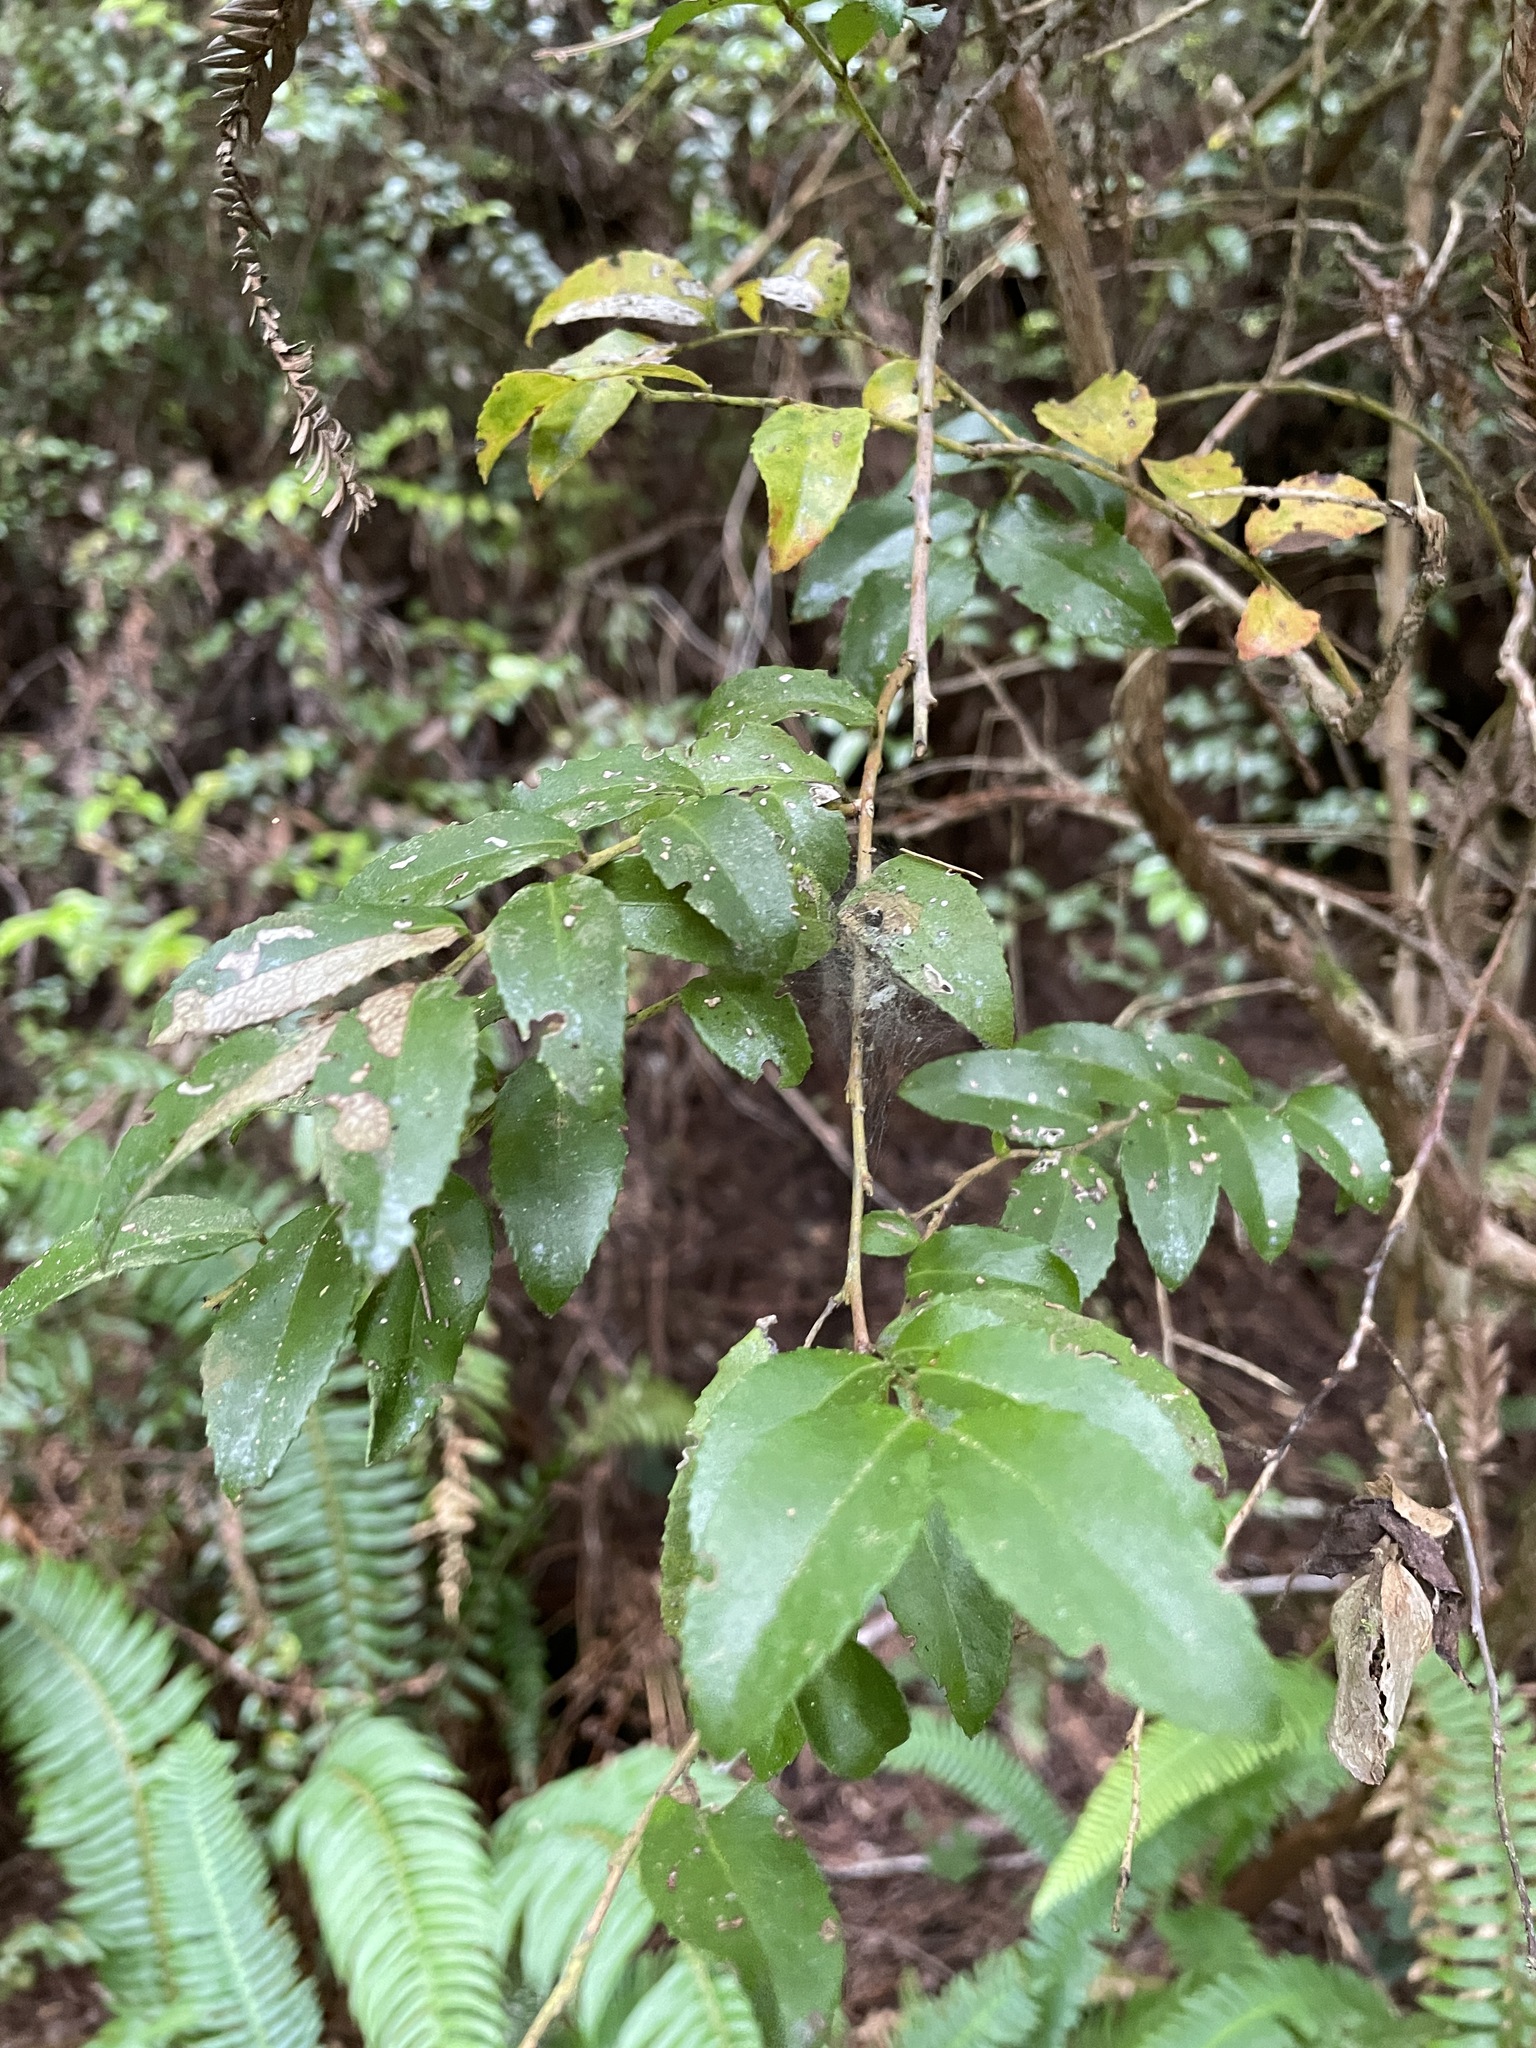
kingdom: Plantae
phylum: Tracheophyta
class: Magnoliopsida
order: Ericales
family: Ericaceae
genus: Vaccinium
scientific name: Vaccinium ovatum
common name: California-huckleberry
